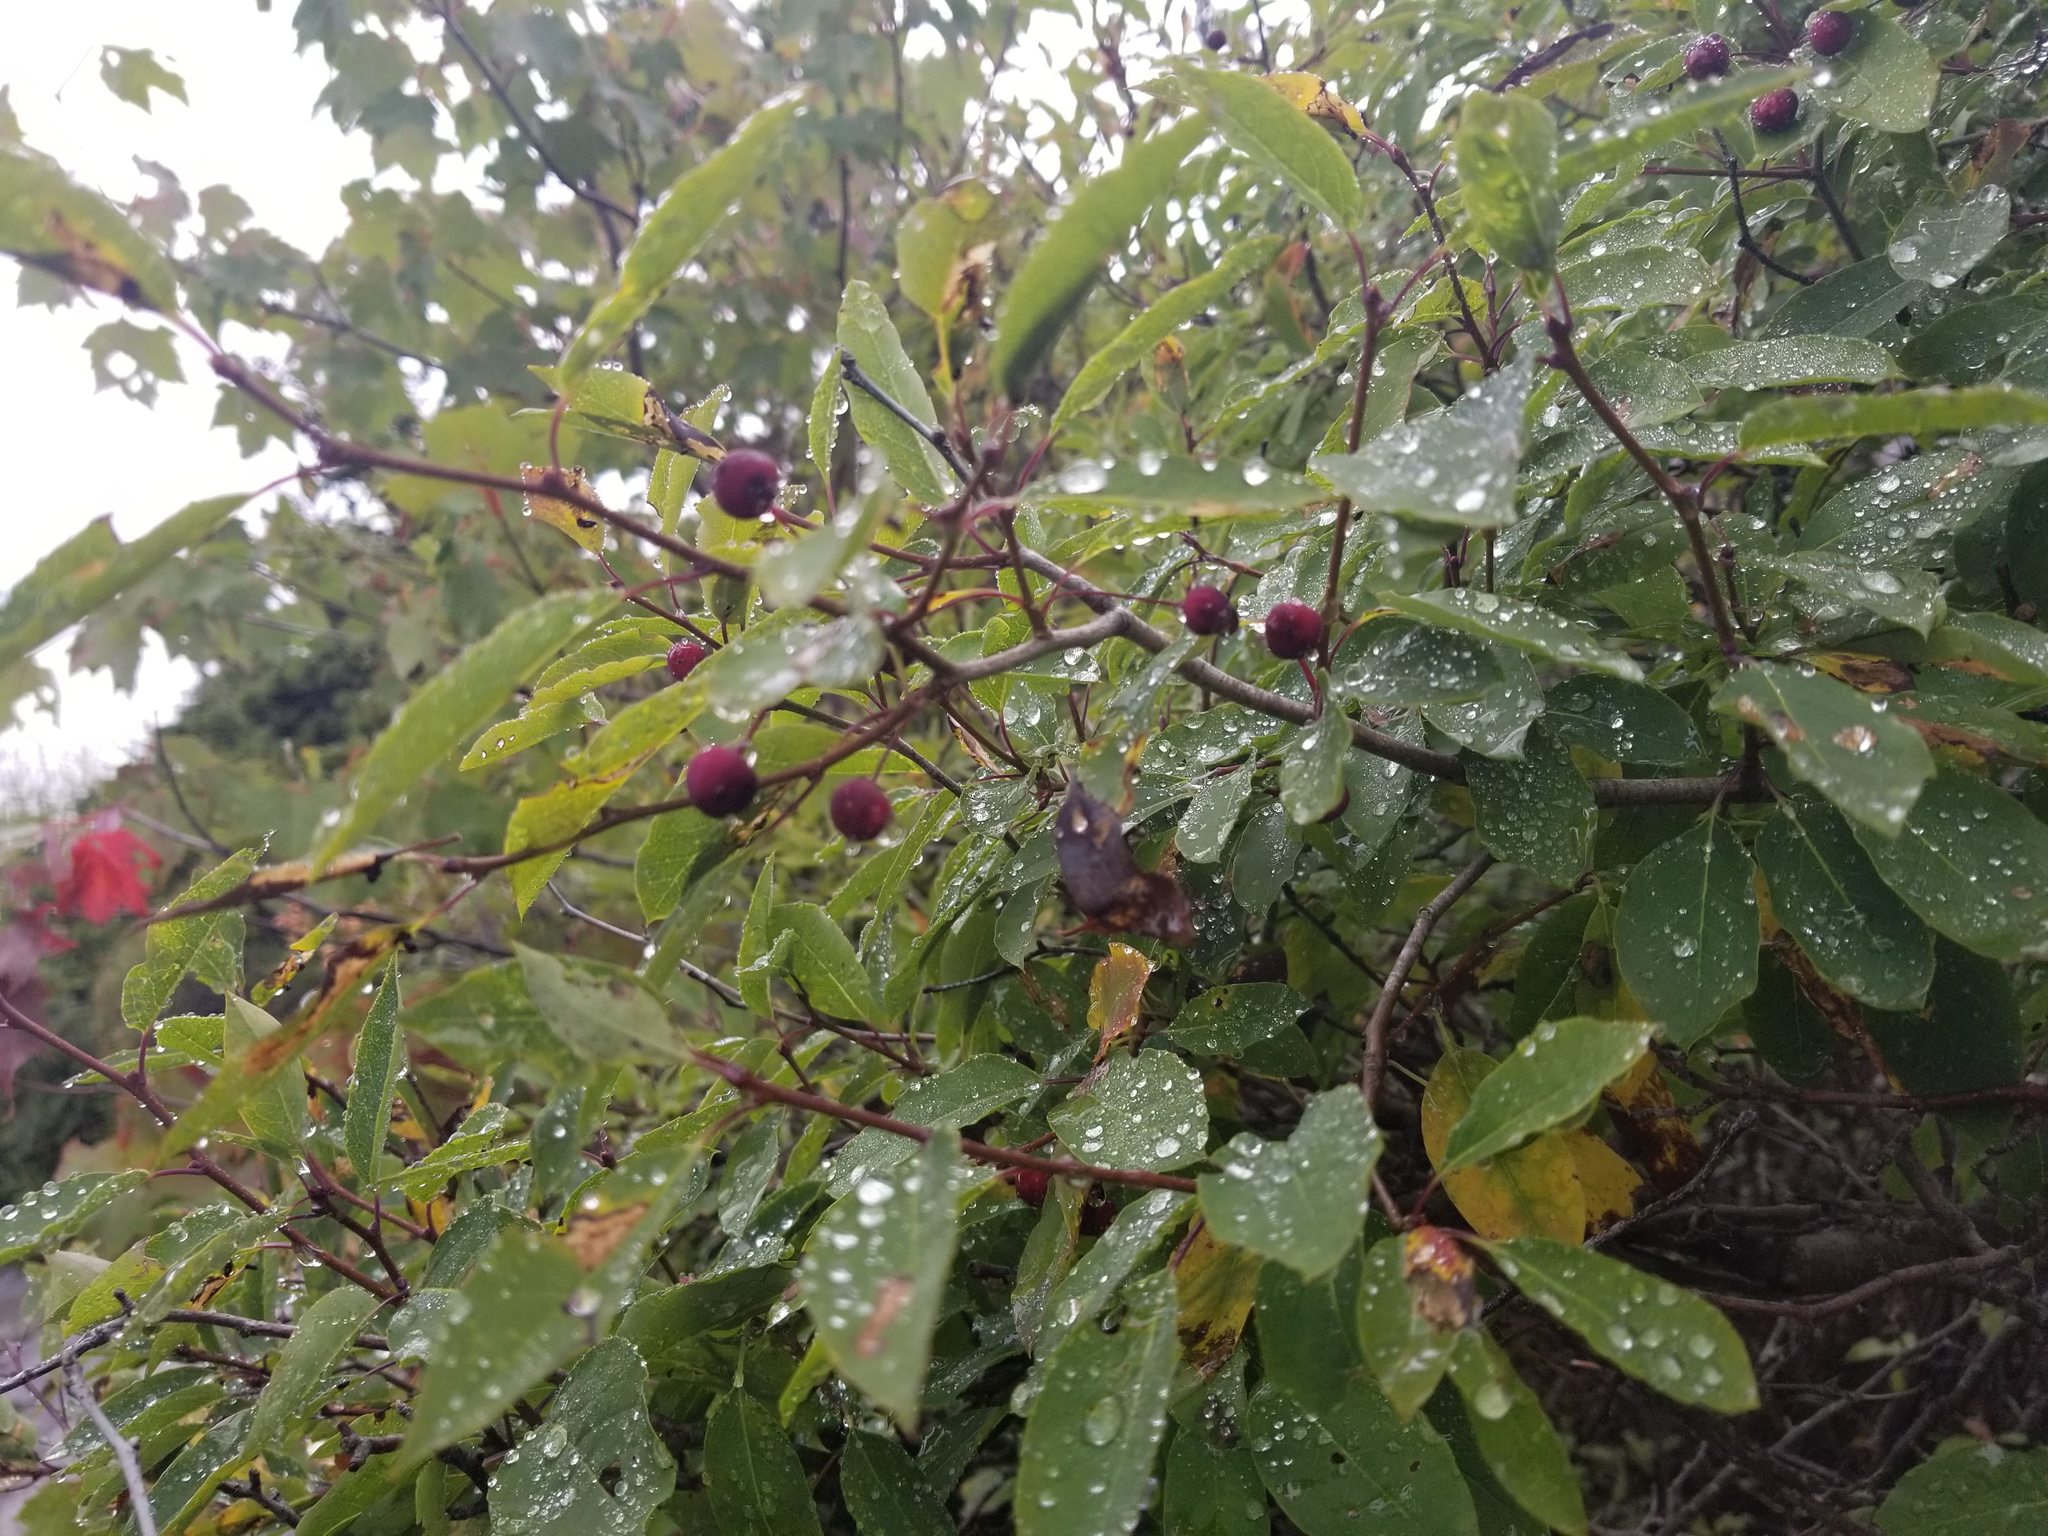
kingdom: Plantae
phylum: Tracheophyta
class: Magnoliopsida
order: Aquifoliales
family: Aquifoliaceae
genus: Ilex
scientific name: Ilex mucronata
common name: Catberry
